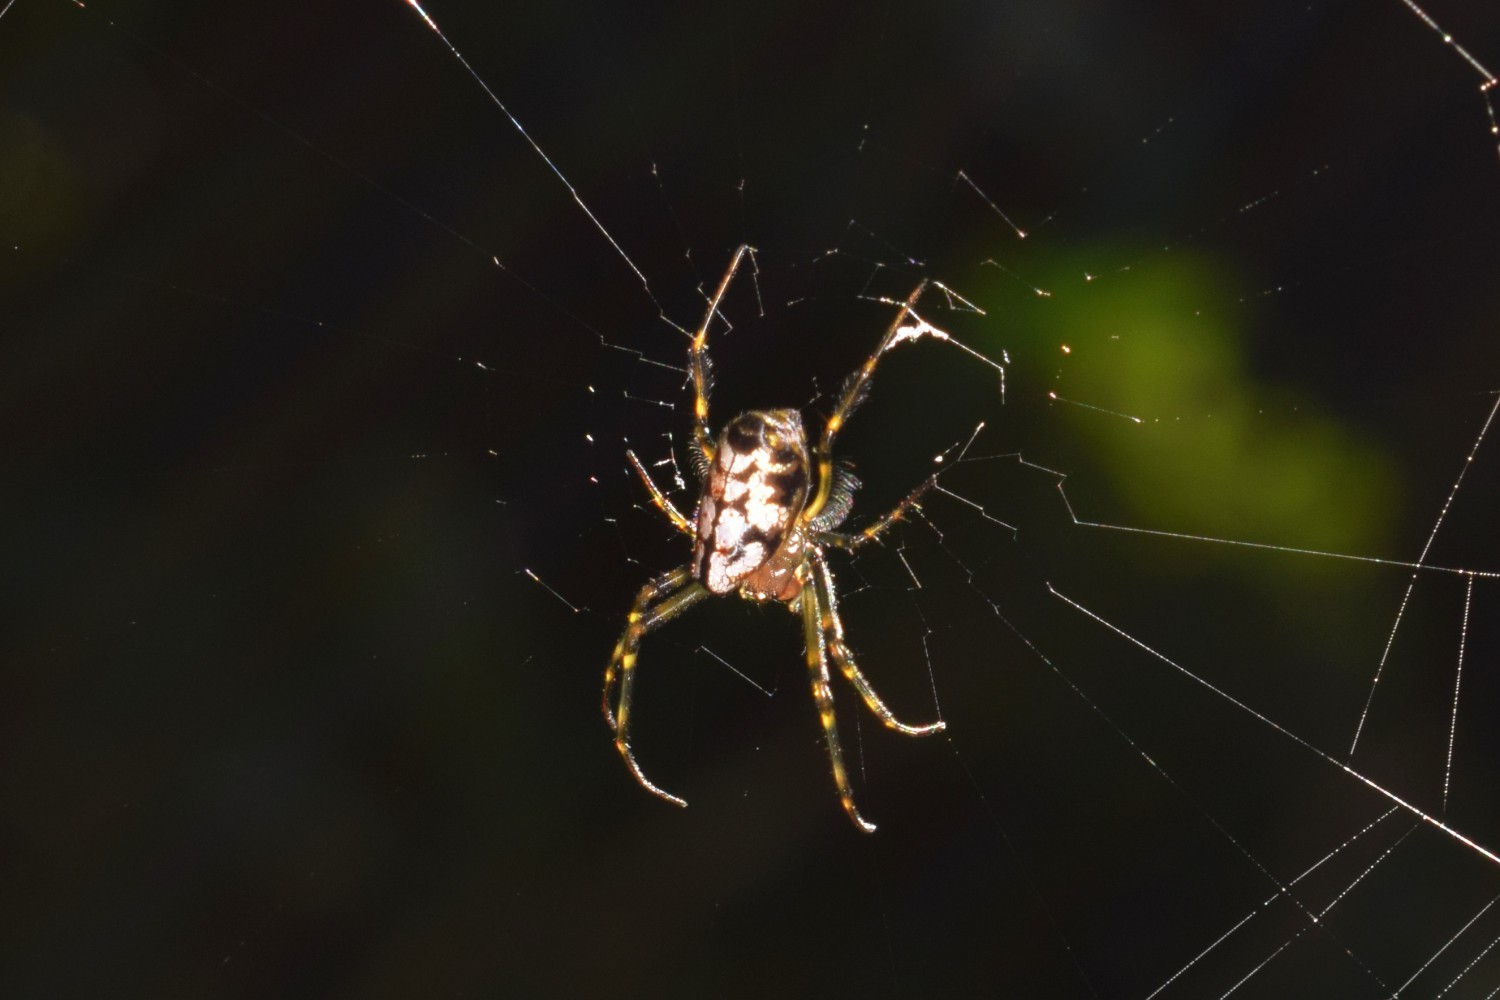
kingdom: Animalia
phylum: Arthropoda
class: Arachnida
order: Araneae
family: Tetragnathidae
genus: Leucauge
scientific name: Leucauge fastigata
